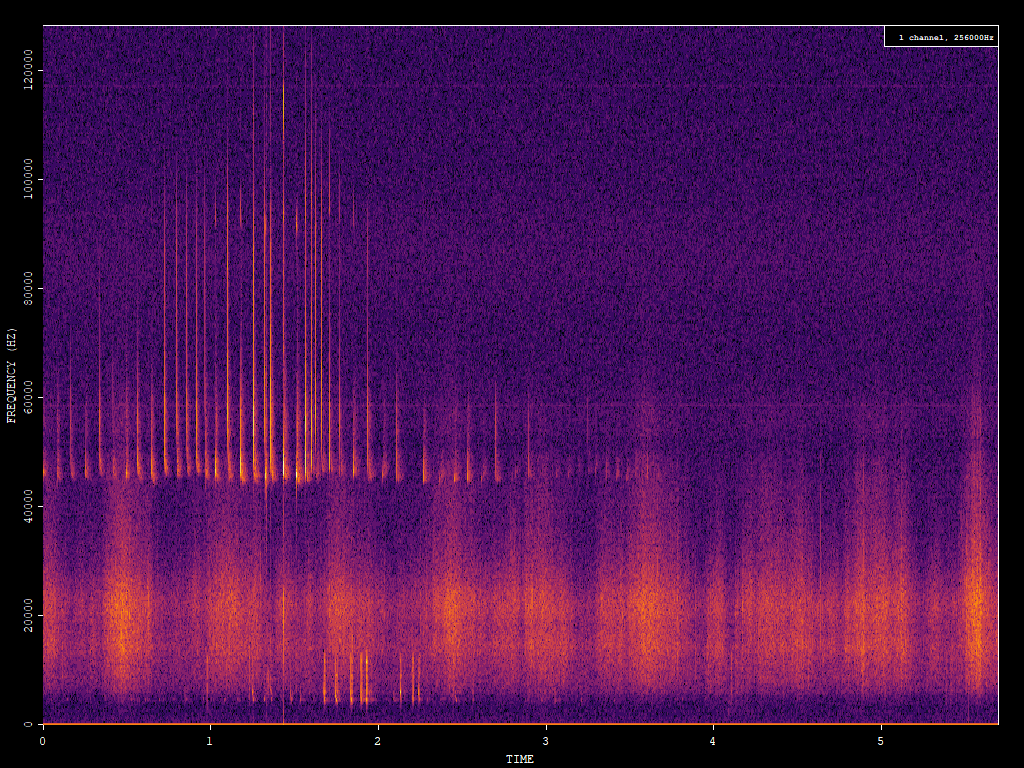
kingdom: Animalia
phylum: Chordata
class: Mammalia
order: Chiroptera
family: Vespertilionidae
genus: Pipistrellus
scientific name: Pipistrellus pipistrellus
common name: Common pipistrelle
